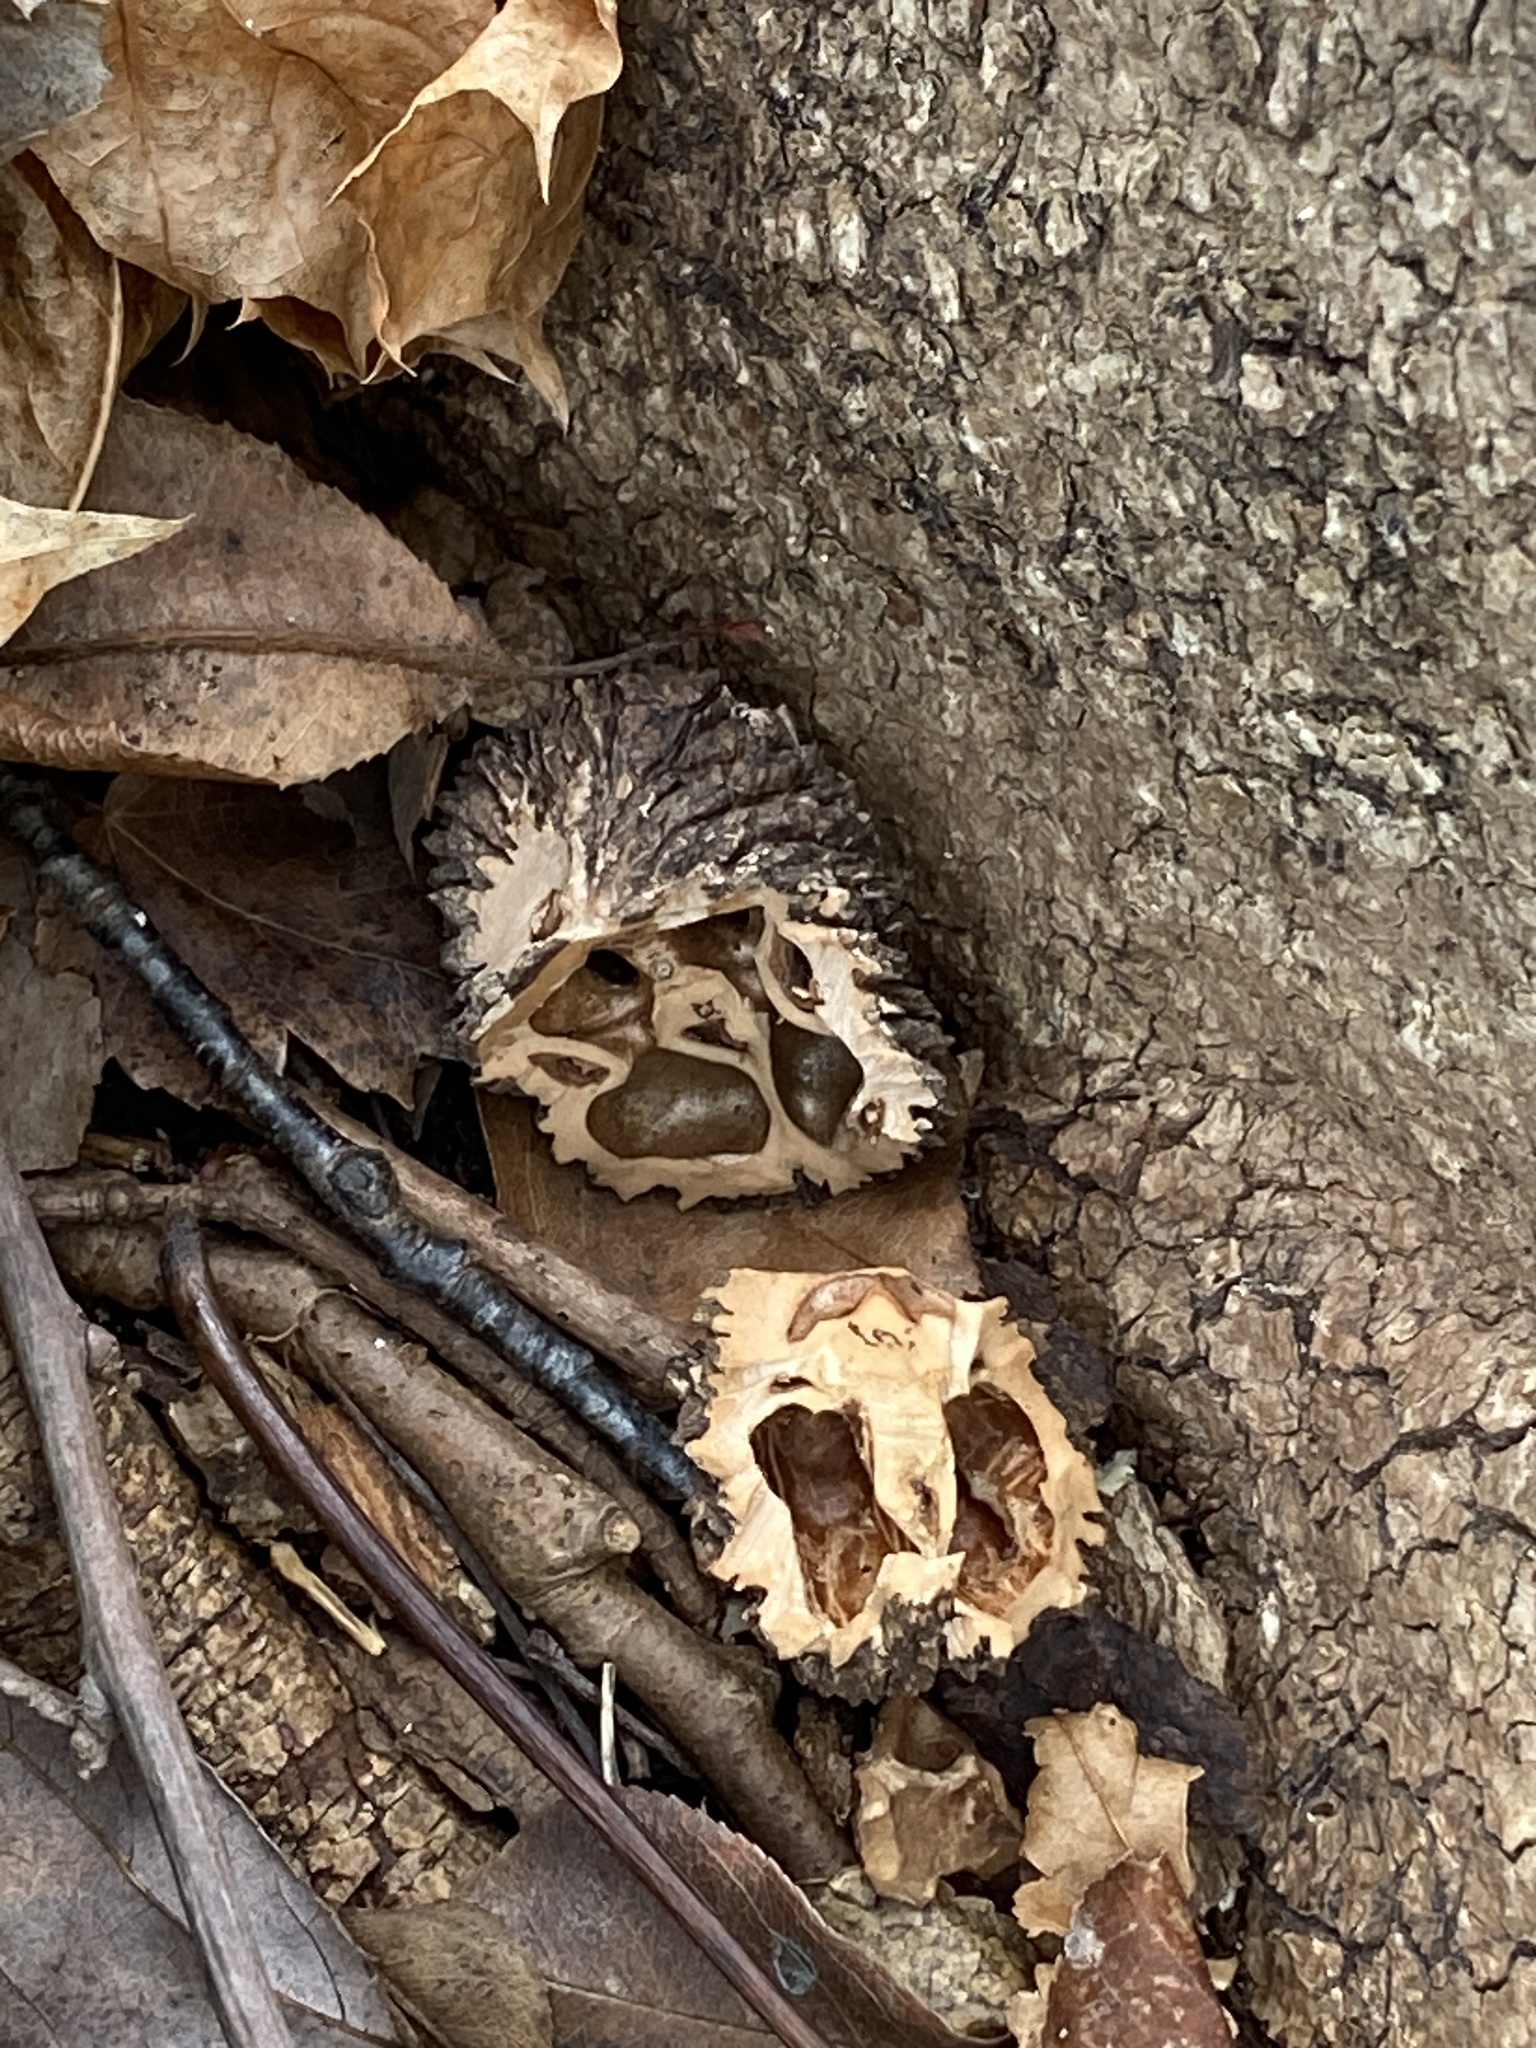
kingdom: Plantae
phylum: Tracheophyta
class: Magnoliopsida
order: Fagales
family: Juglandaceae
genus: Juglans
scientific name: Juglans nigra
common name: Black walnut
